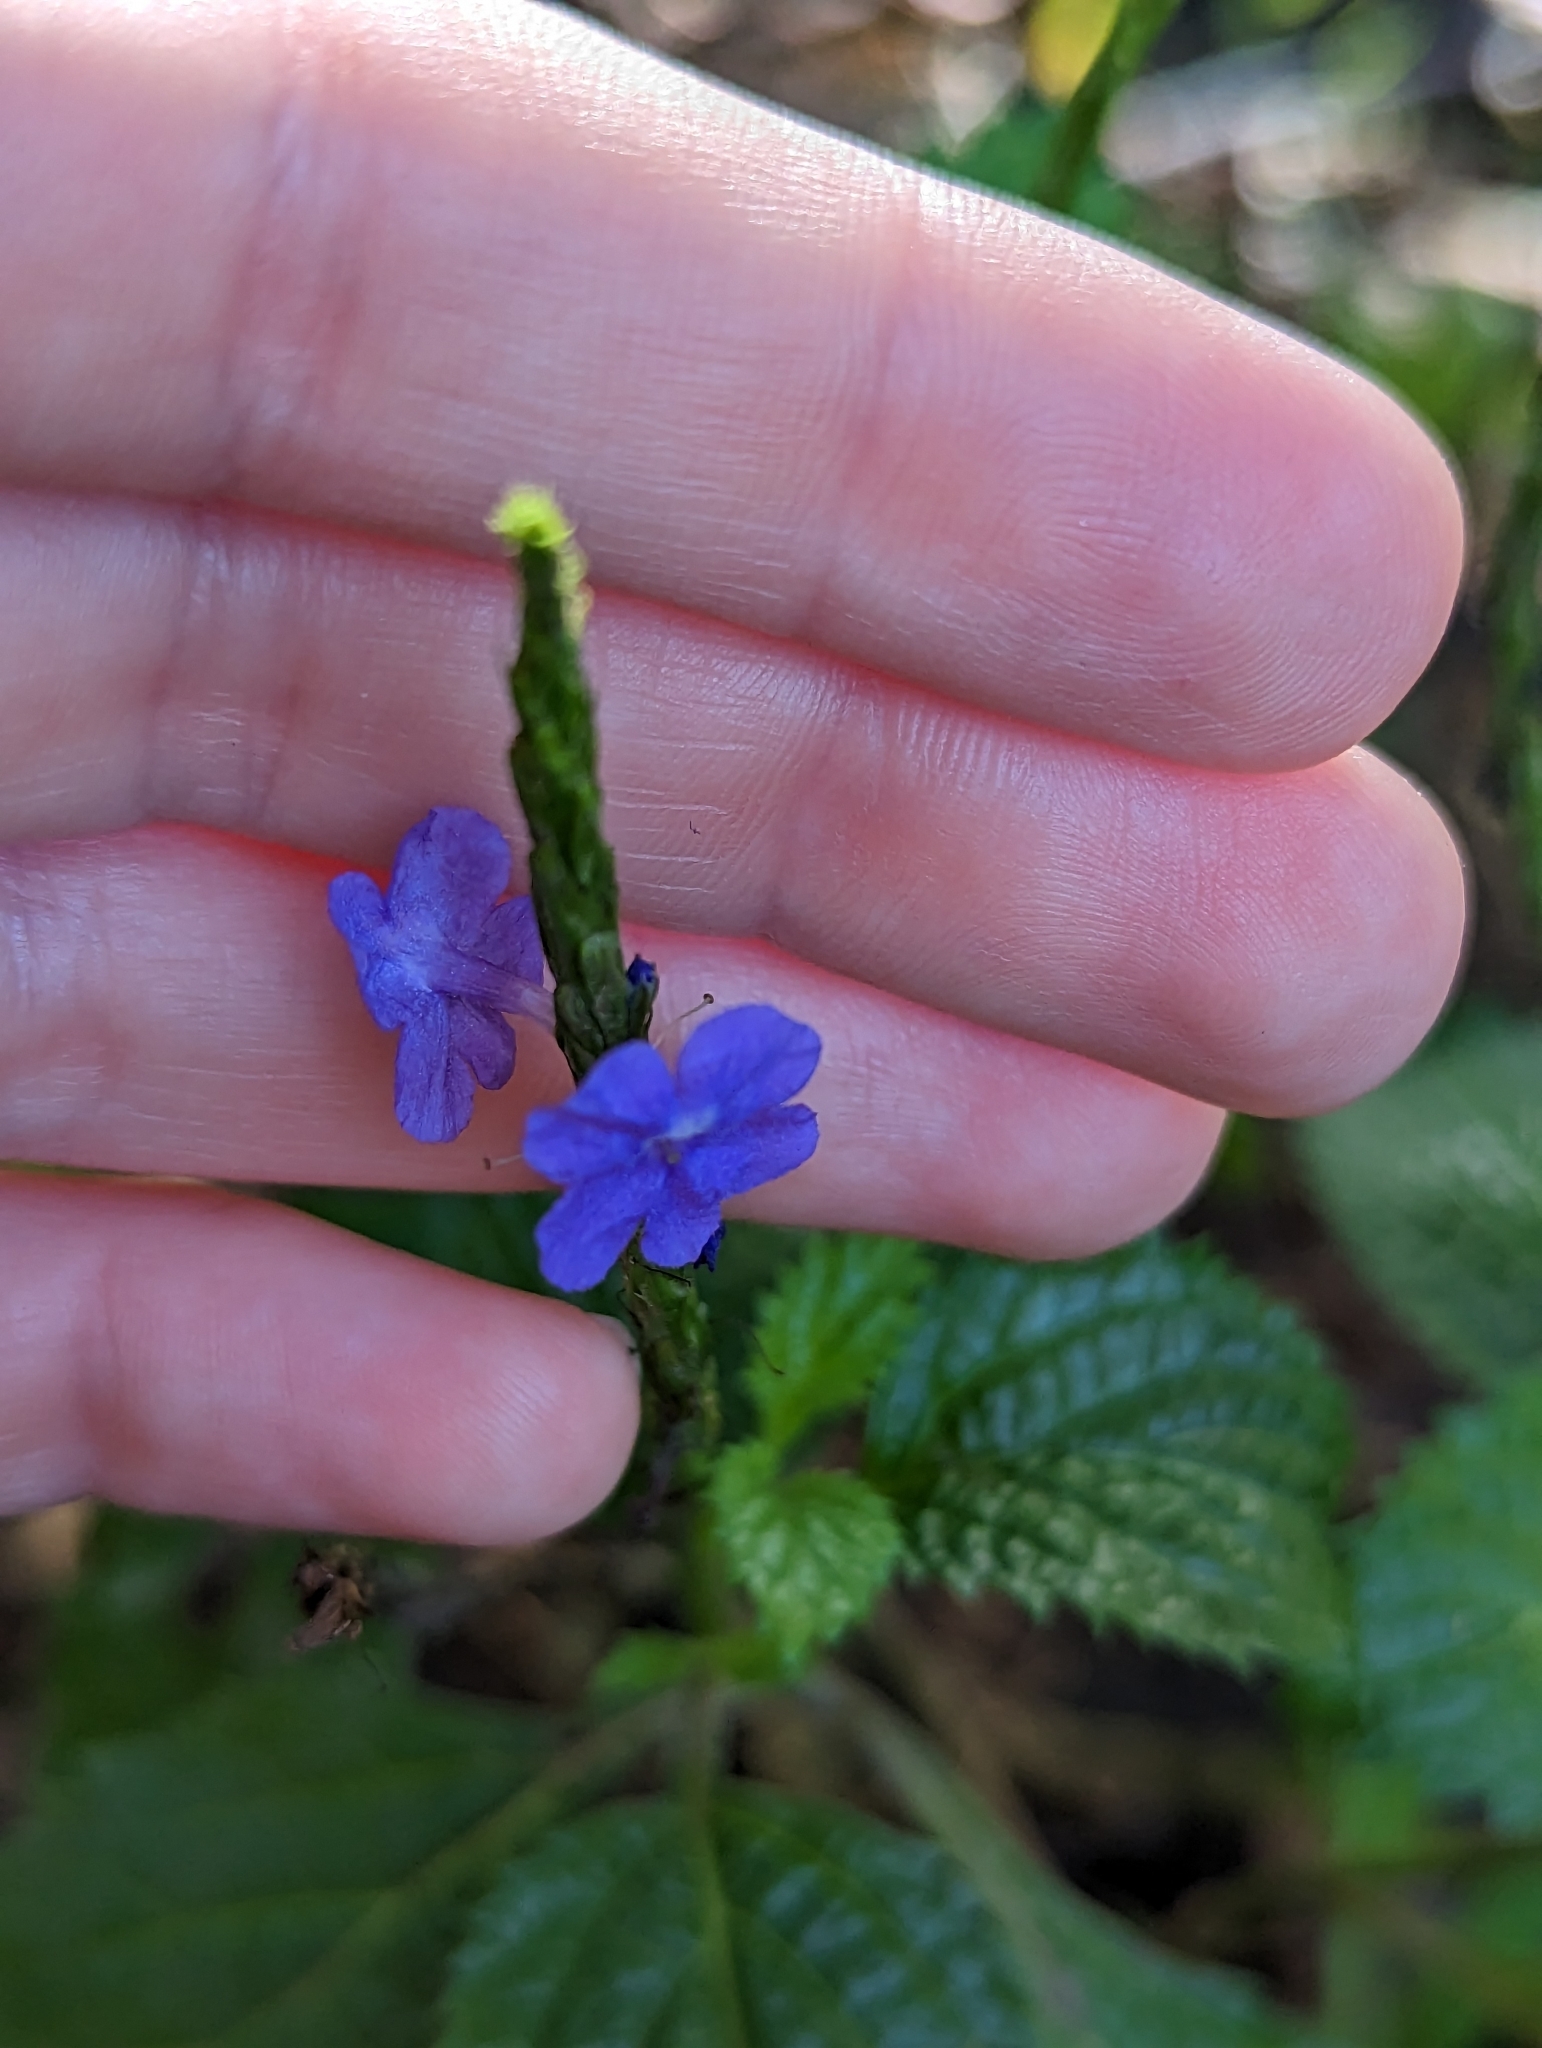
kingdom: Plantae
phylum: Tracheophyta
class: Magnoliopsida
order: Lamiales
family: Verbenaceae
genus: Stachytarpheta
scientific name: Stachytarpheta cayennensis
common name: Cayenne porterweed
